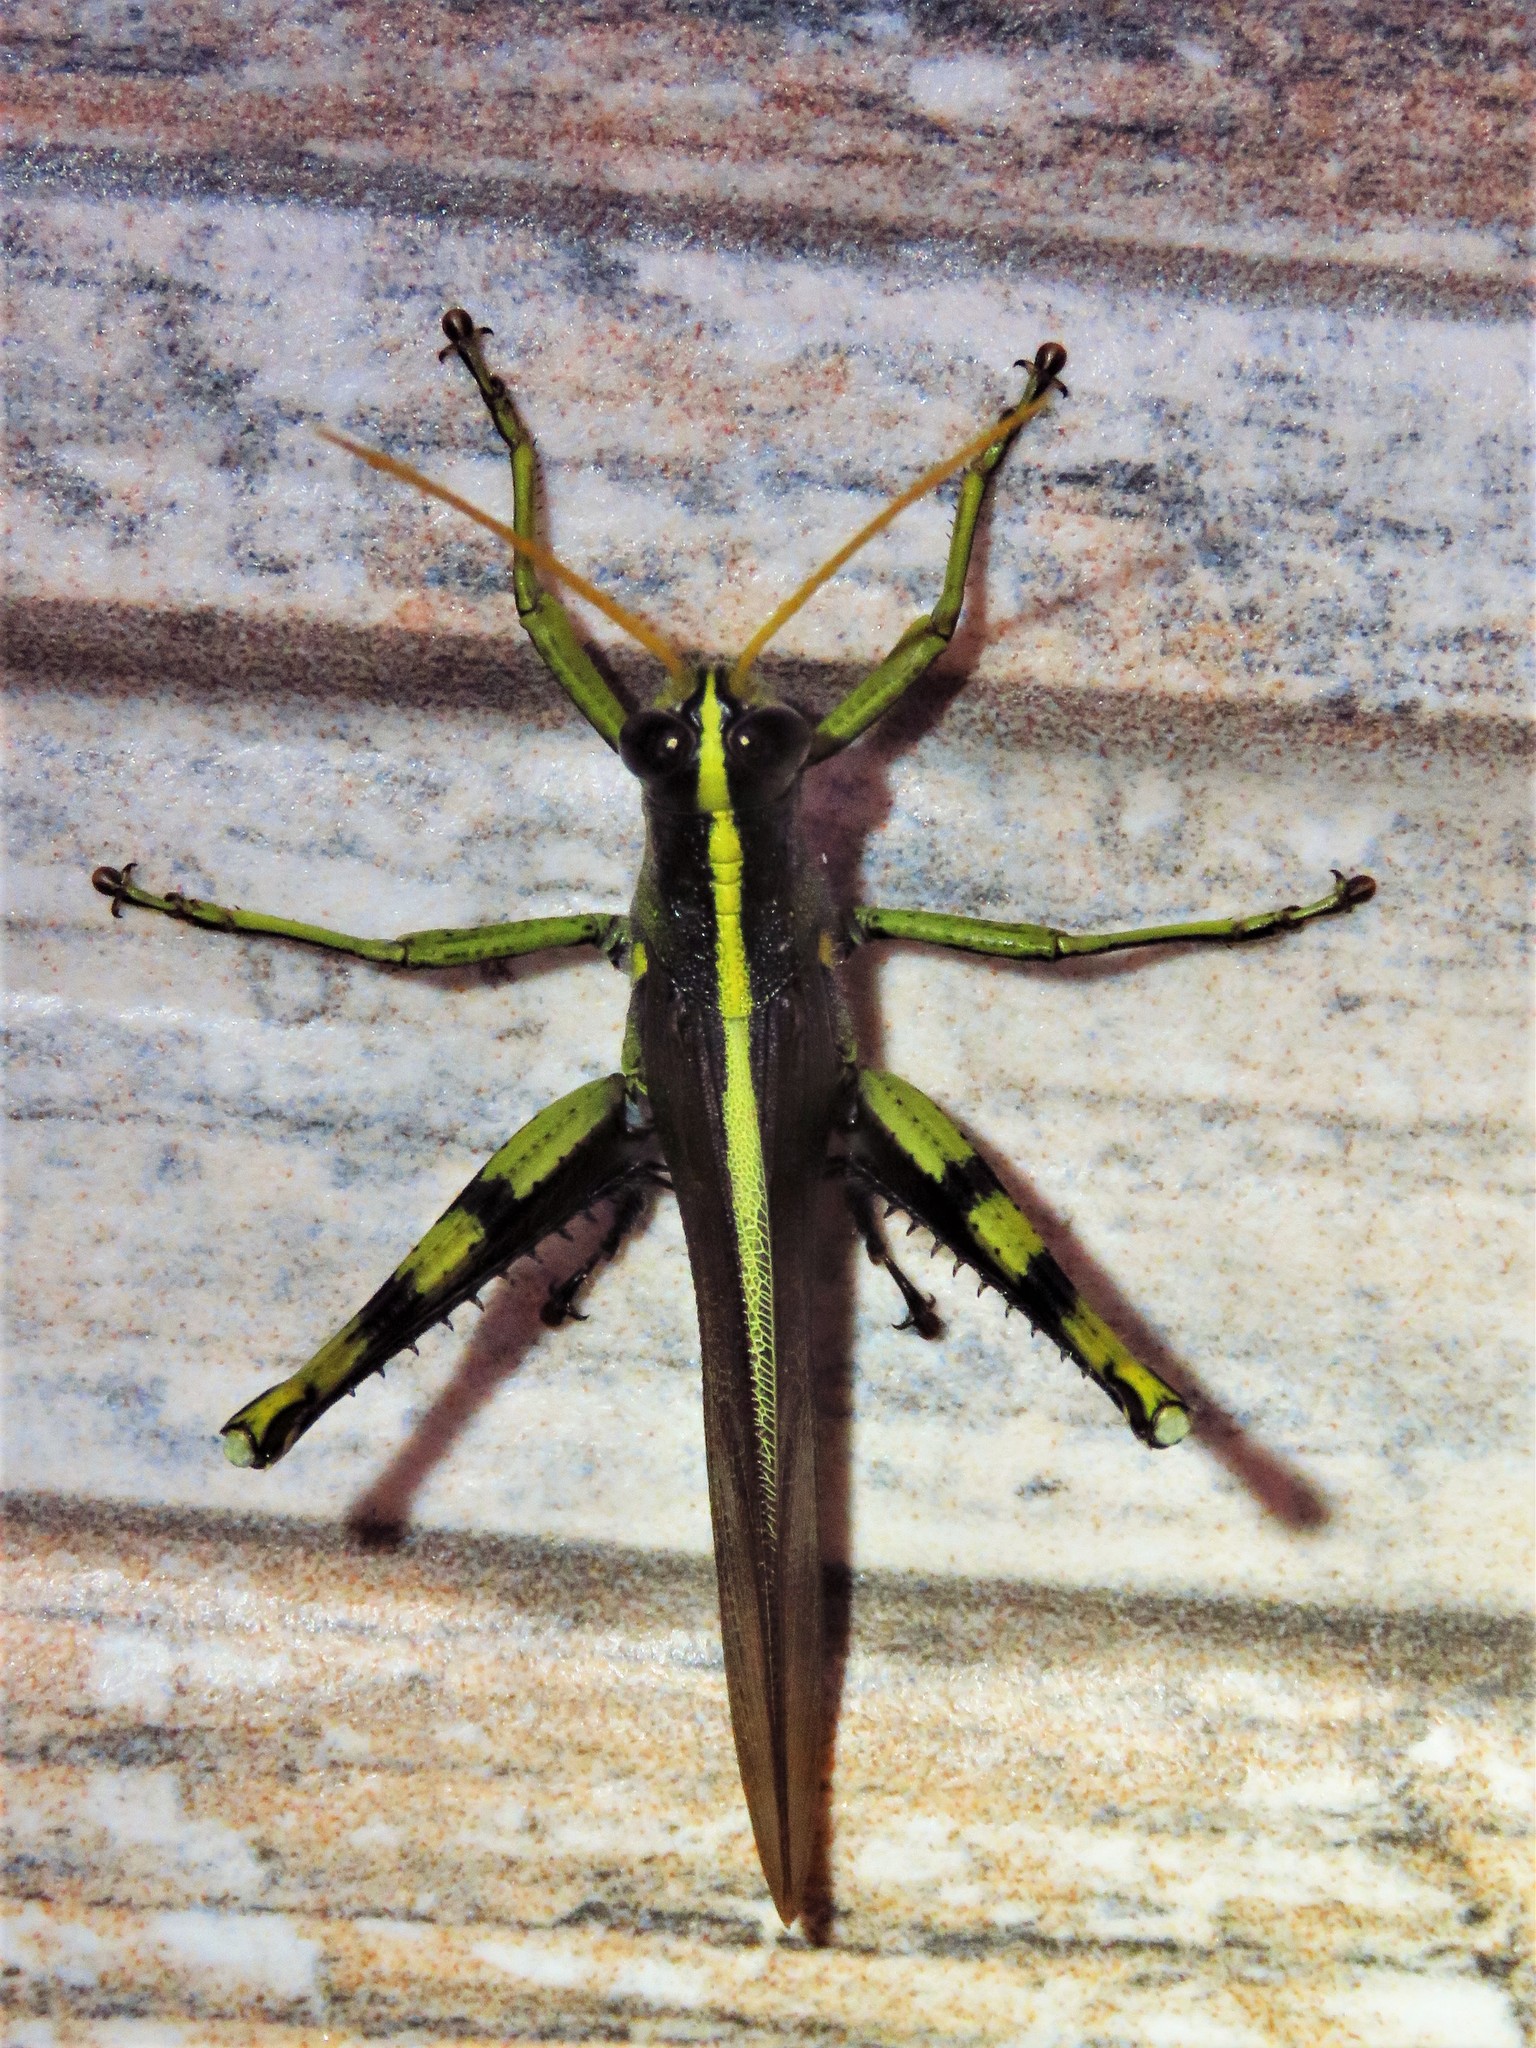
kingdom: Animalia
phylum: Arthropoda
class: Insecta
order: Orthoptera
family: Acrididae
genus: Schistocerca
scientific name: Schistocerca obscura
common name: Obscure bird grasshopper
